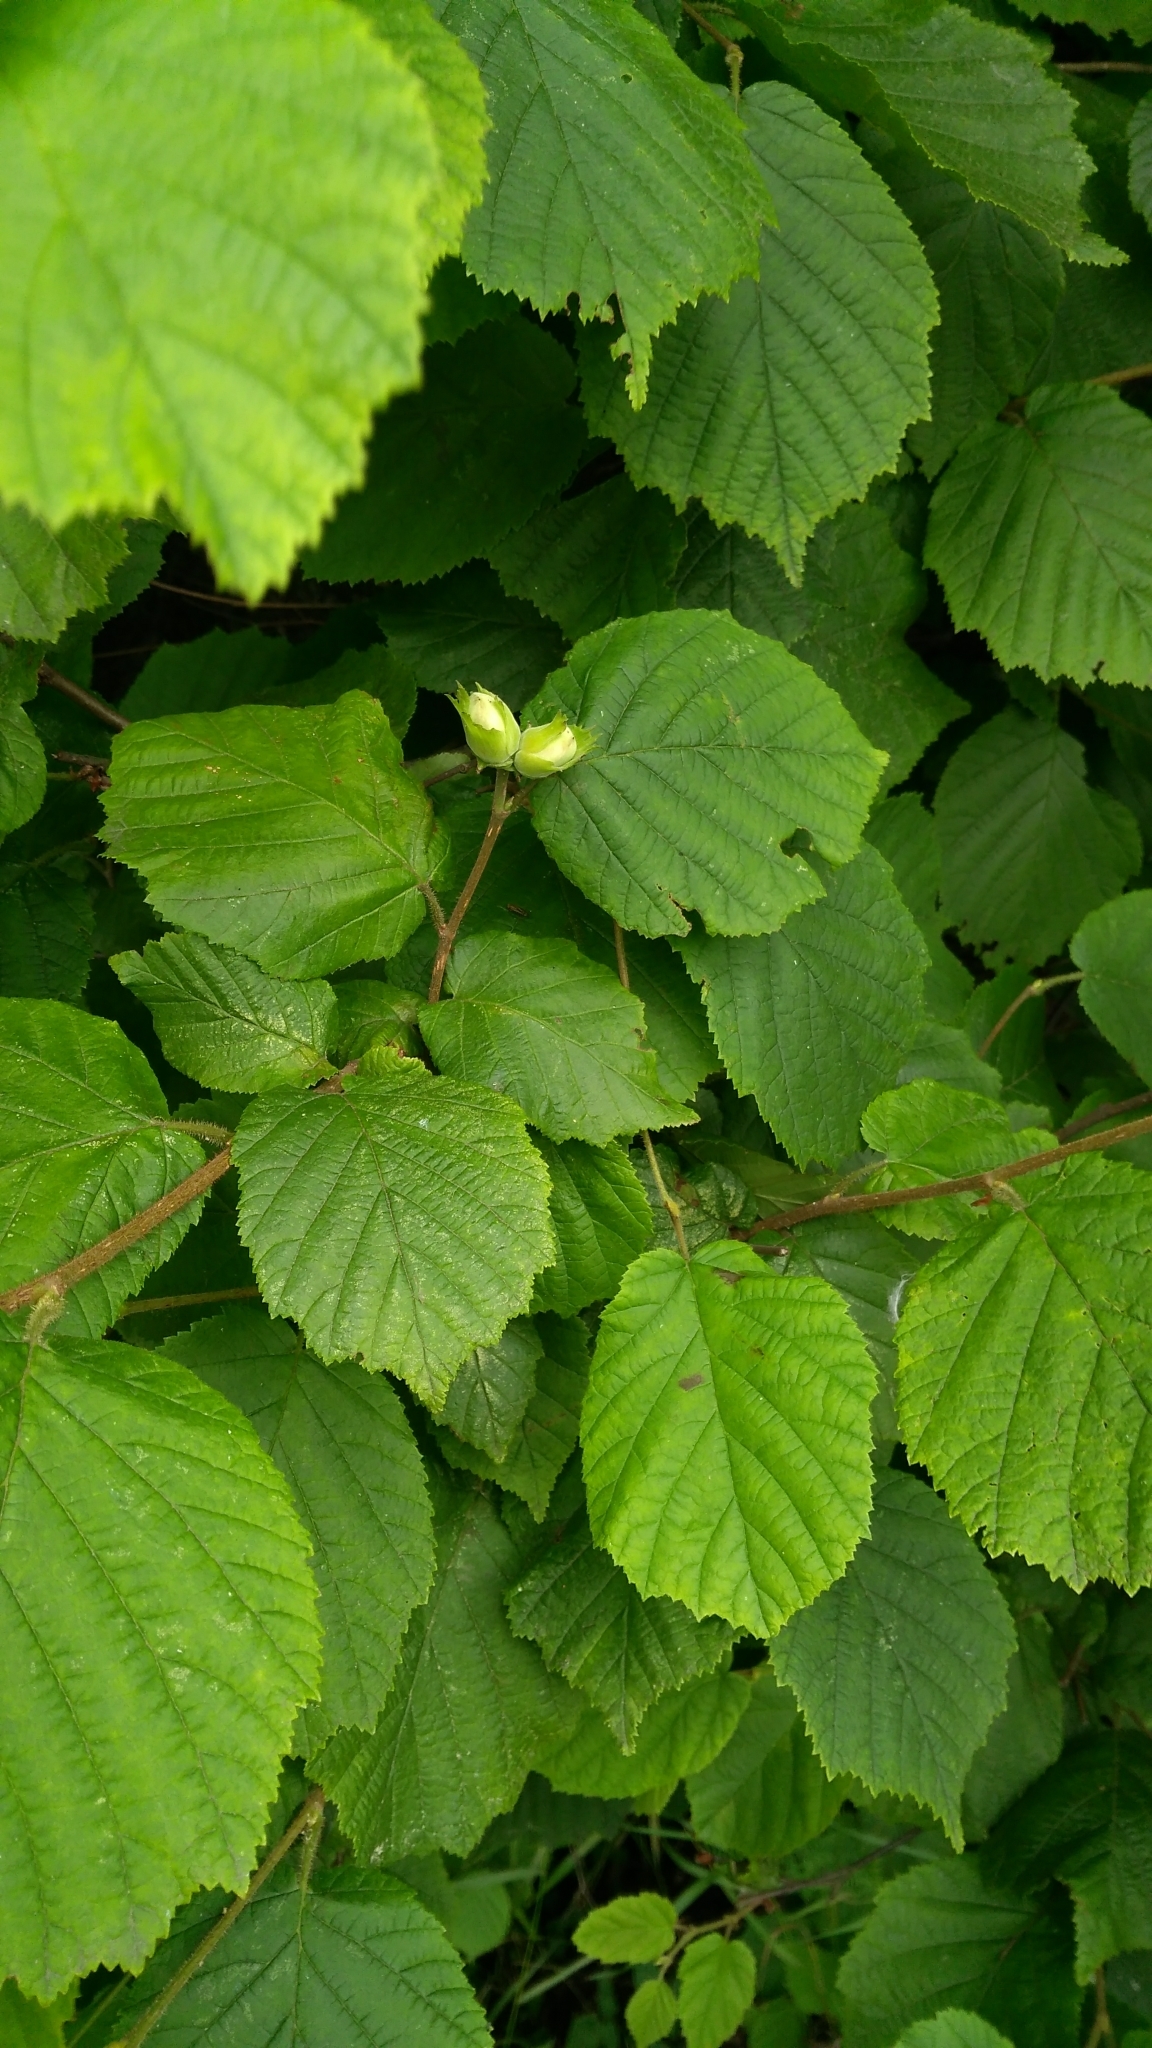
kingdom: Plantae
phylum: Tracheophyta
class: Magnoliopsida
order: Fagales
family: Betulaceae
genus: Corylus
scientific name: Corylus avellana
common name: European hazel
